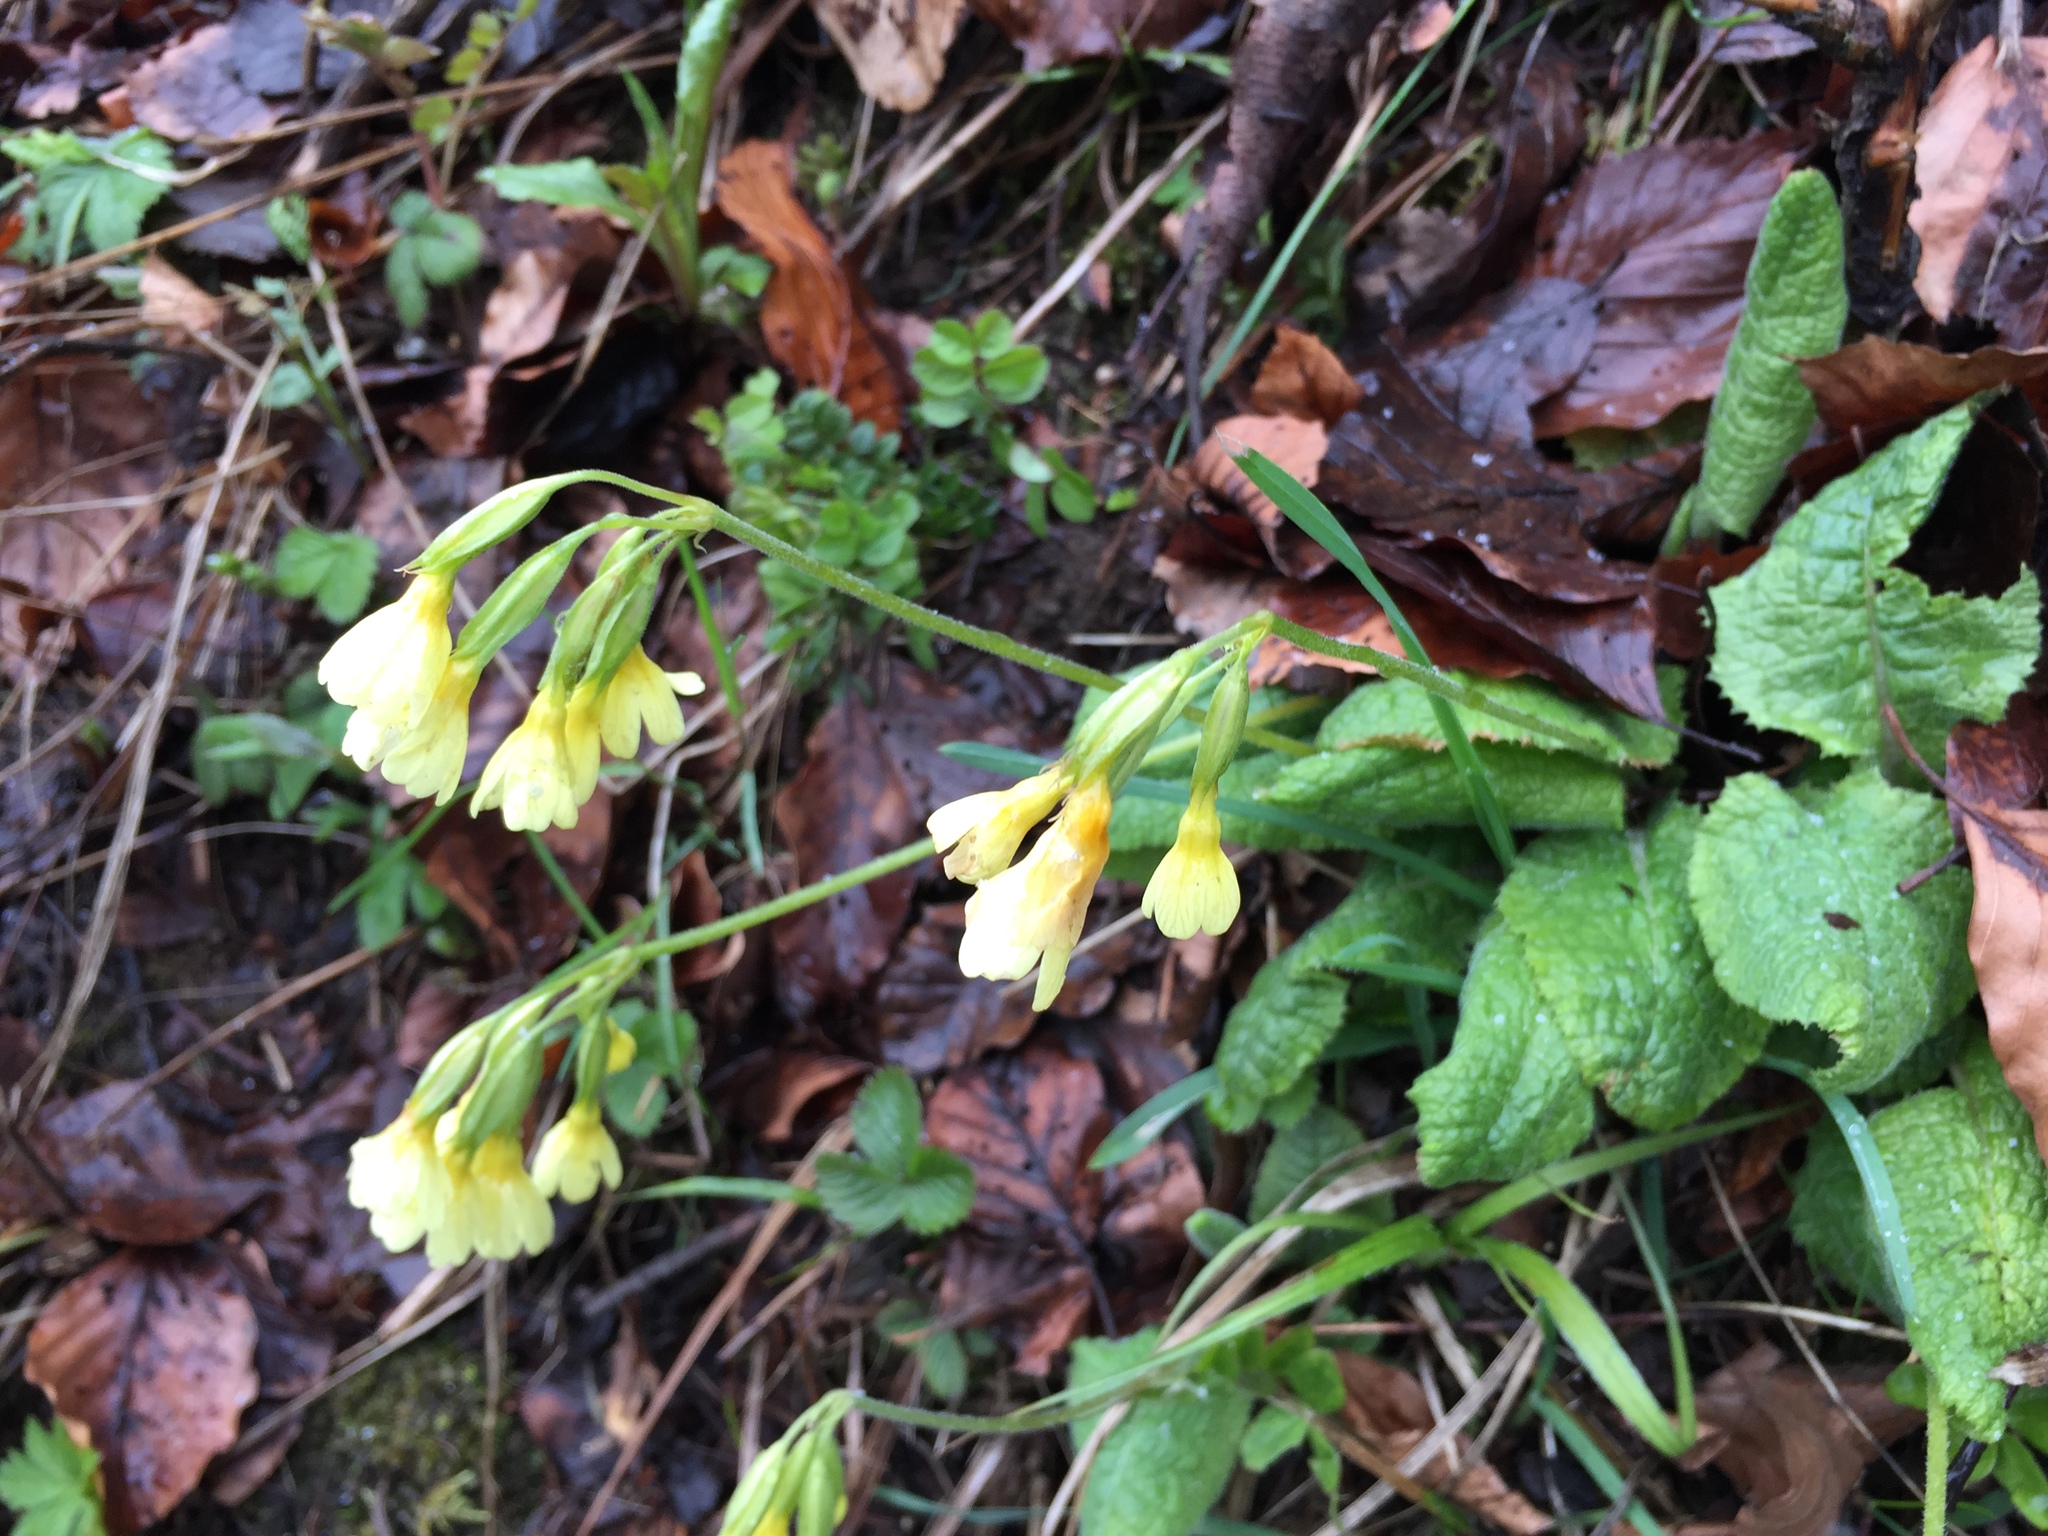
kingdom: Plantae
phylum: Tracheophyta
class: Magnoliopsida
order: Ericales
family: Primulaceae
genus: Primula
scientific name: Primula elatior
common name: Oxlip
